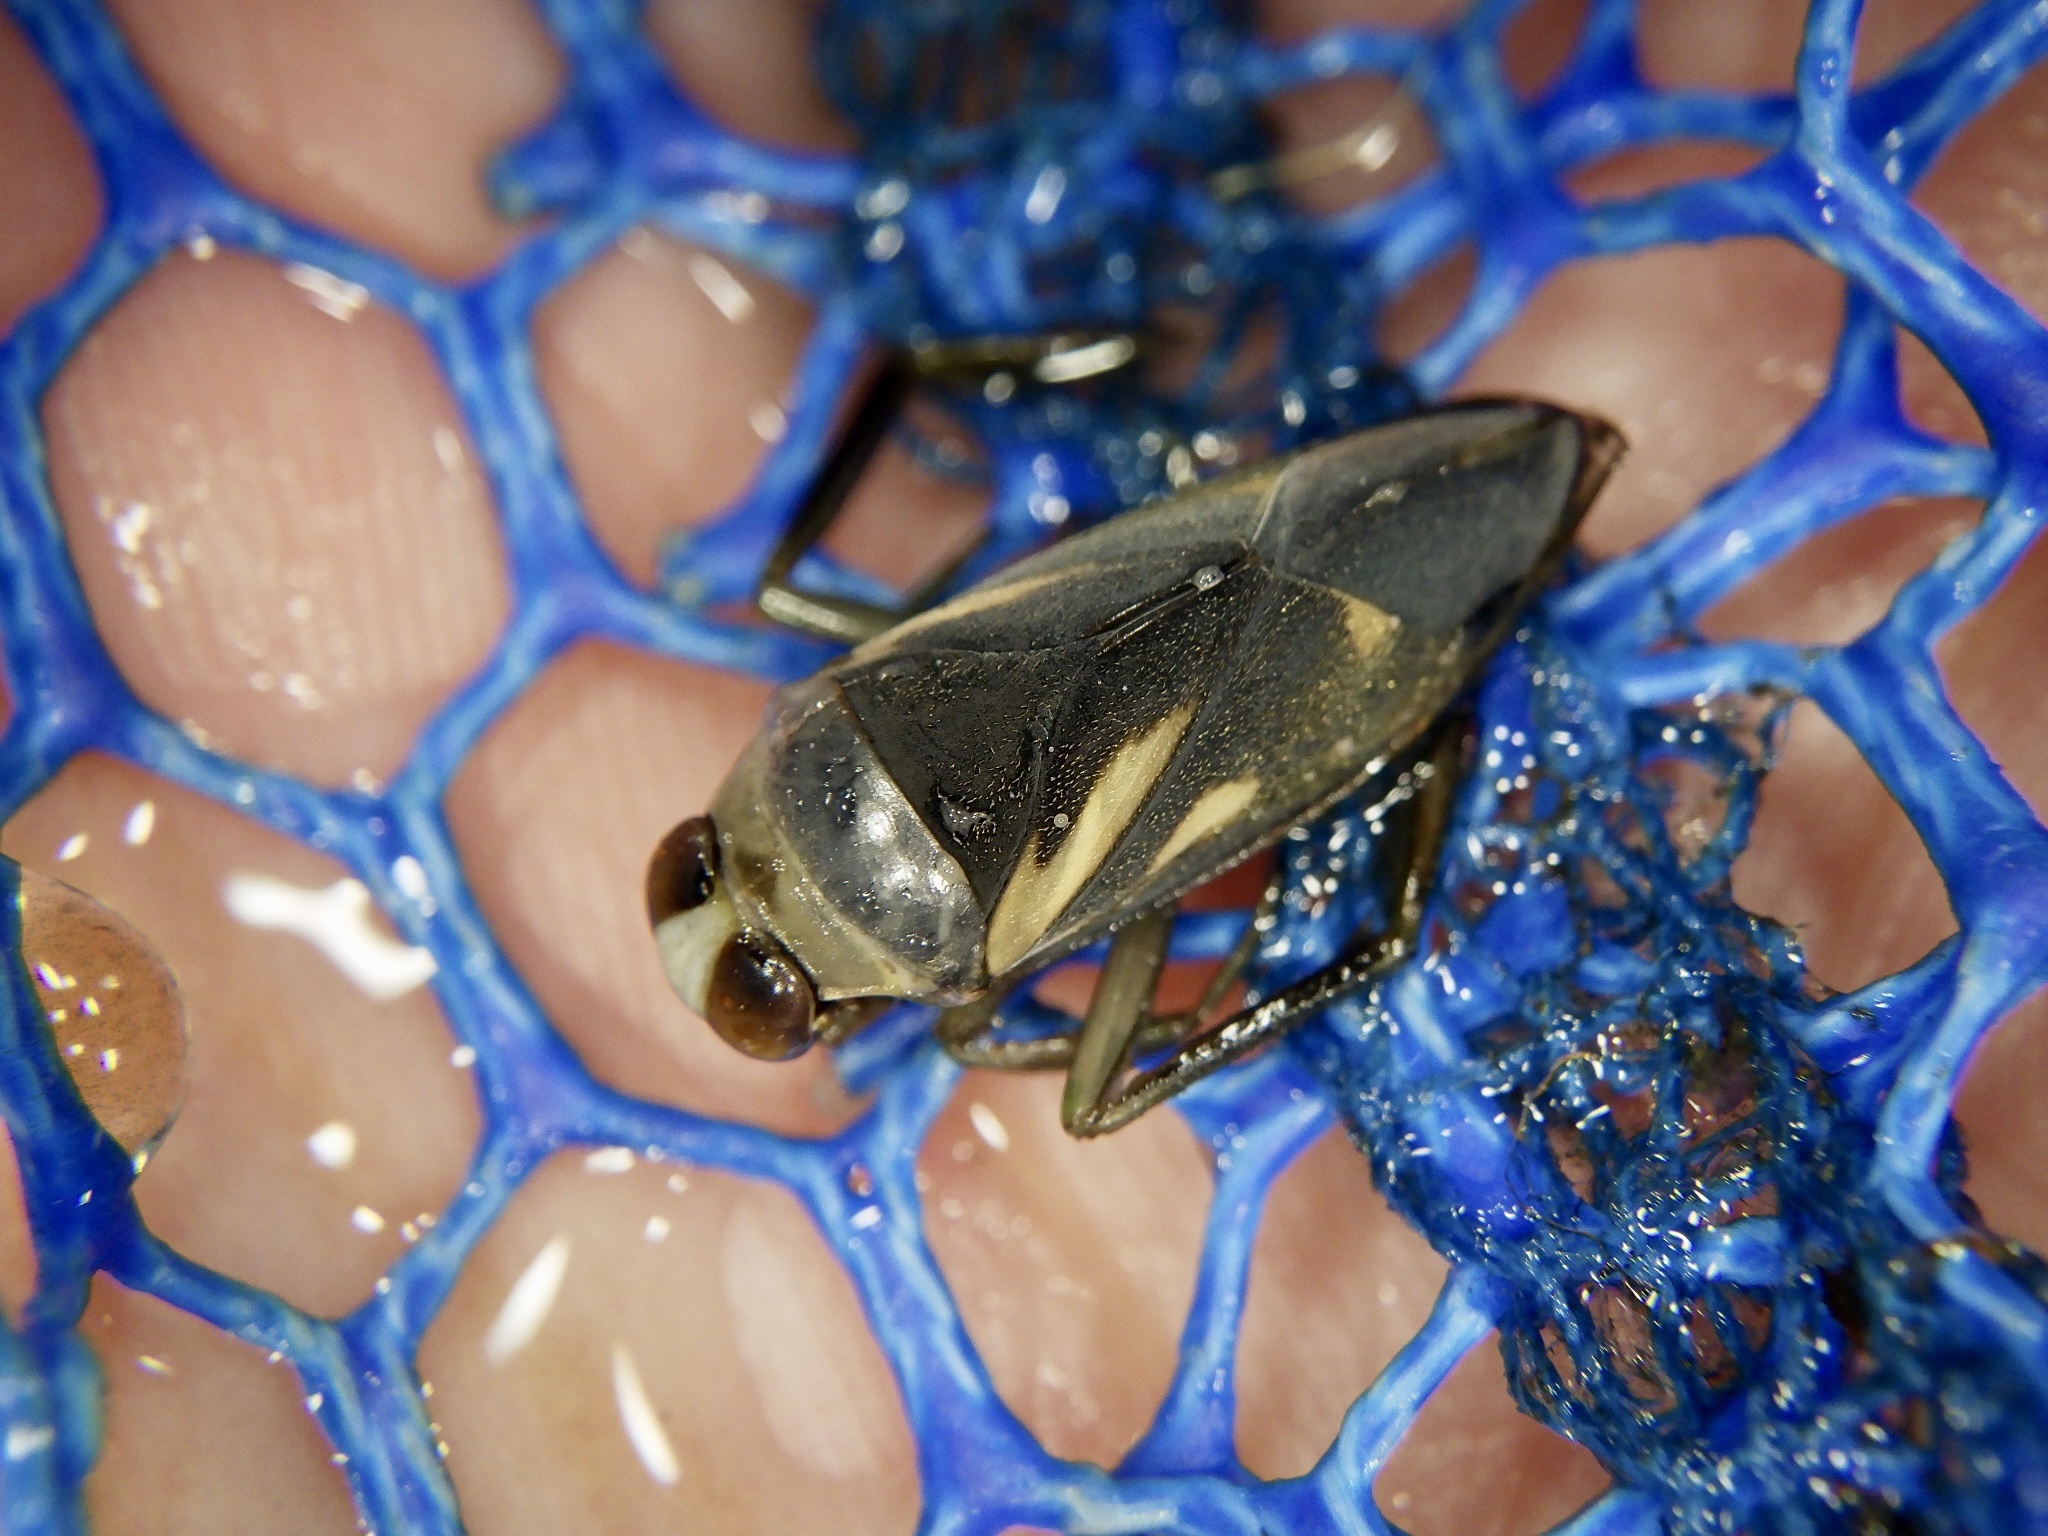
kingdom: Animalia
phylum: Arthropoda
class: Insecta
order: Hemiptera
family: Notonectidae
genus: Notonecta
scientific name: Notonecta triguttata
